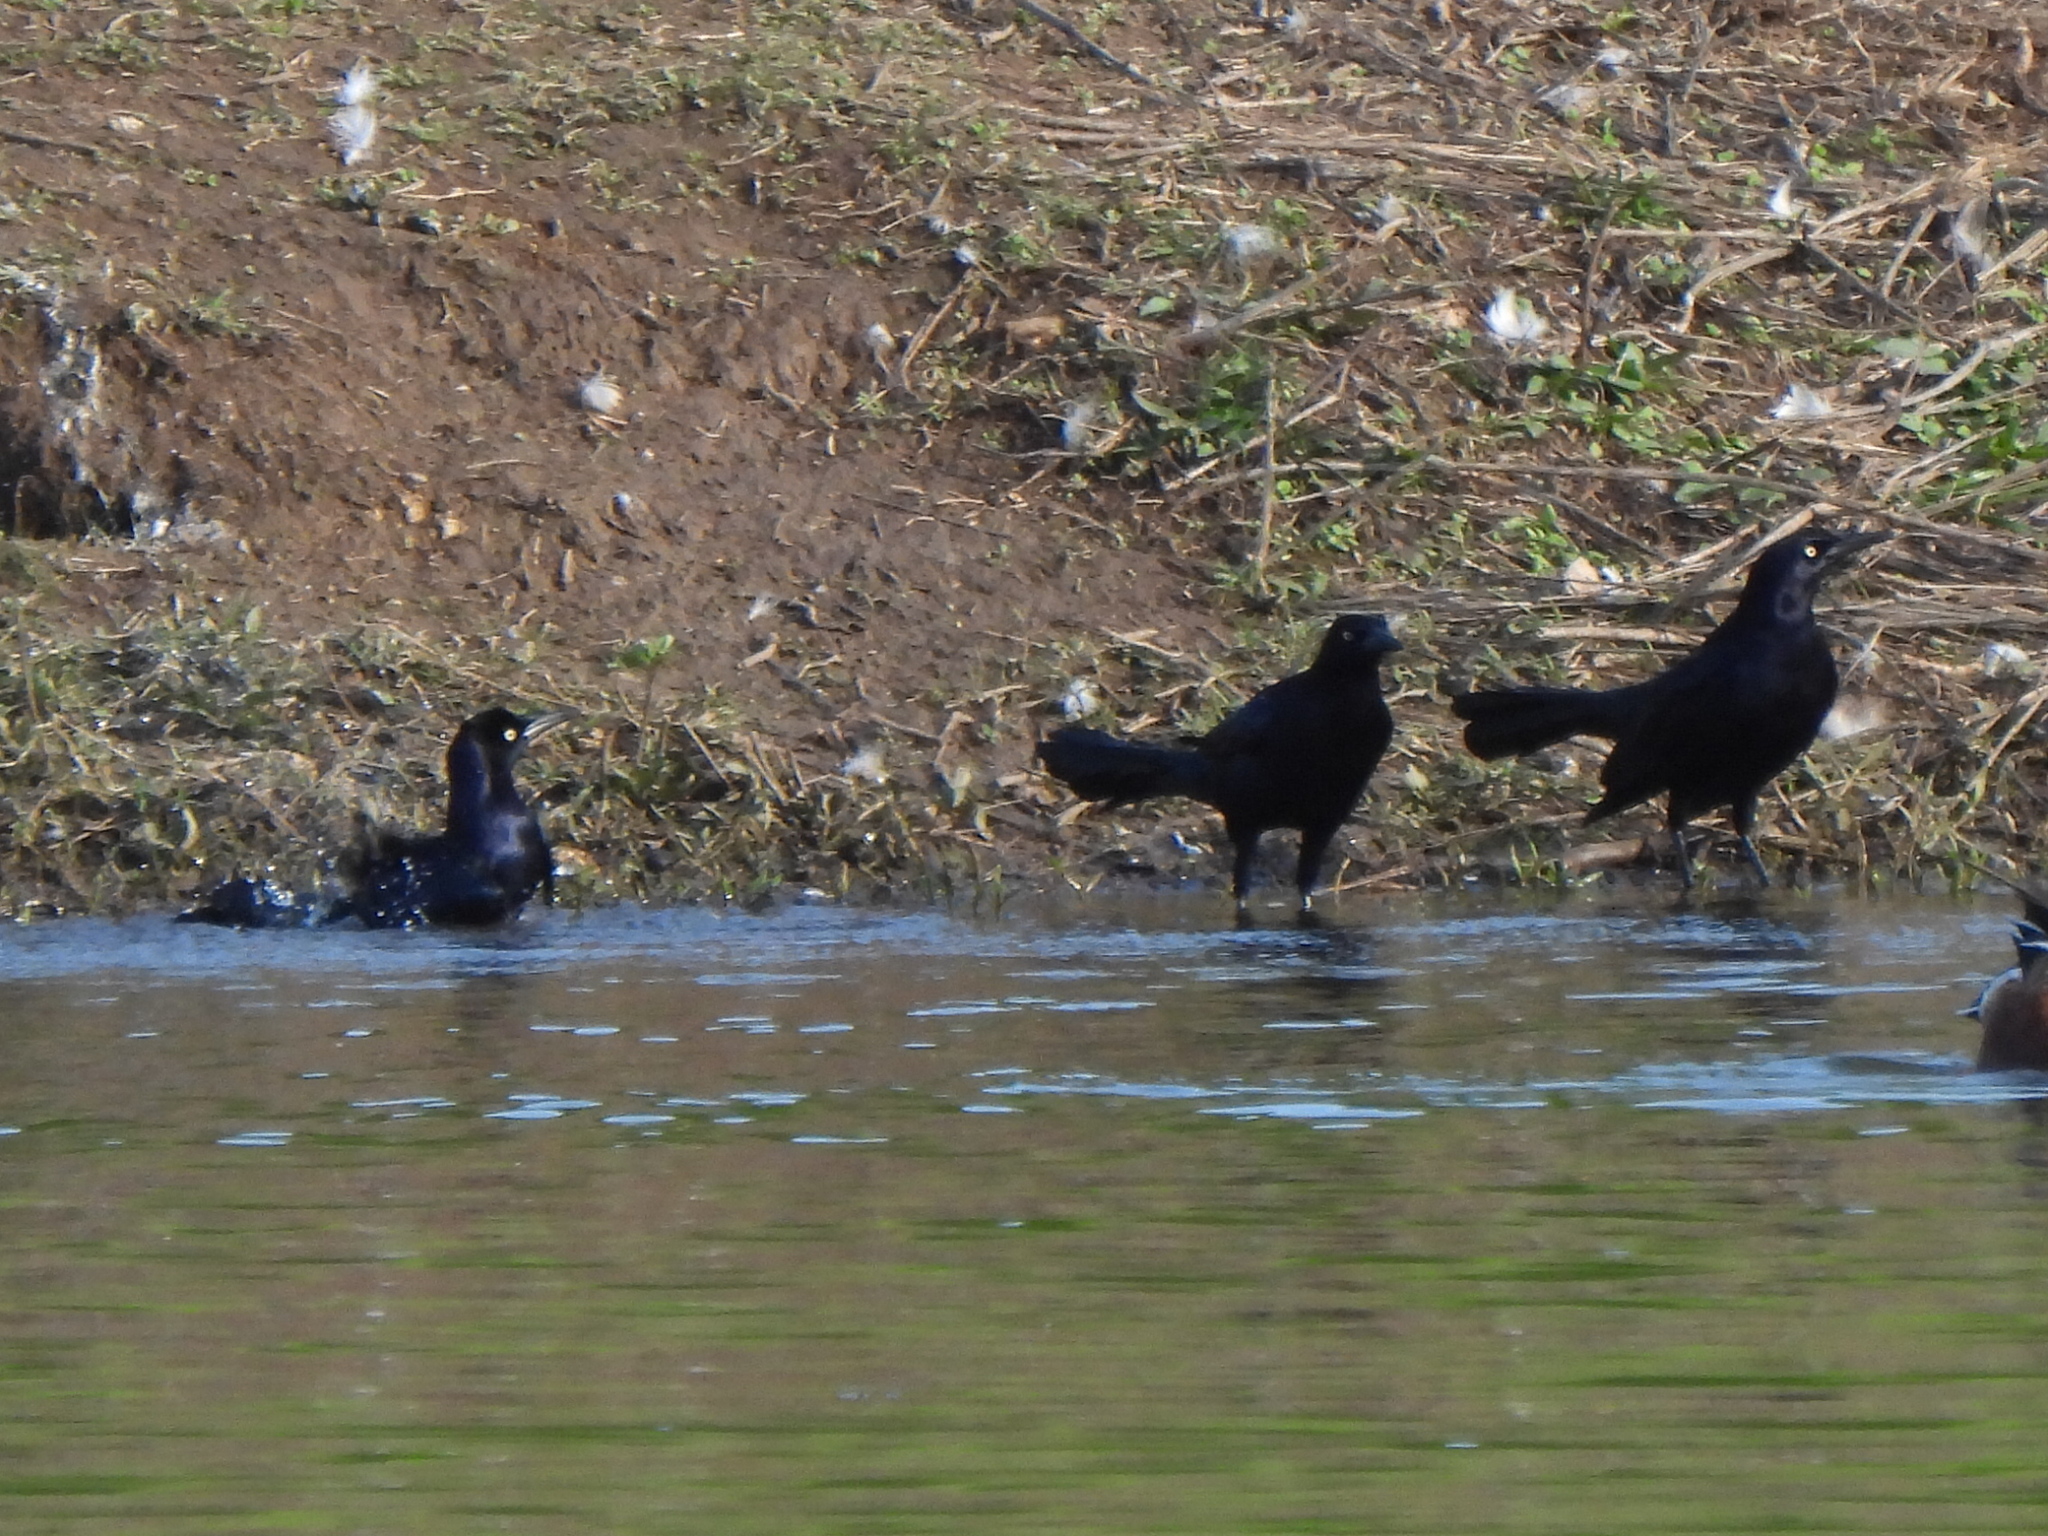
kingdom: Animalia
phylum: Chordata
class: Aves
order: Passeriformes
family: Icteridae
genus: Quiscalus
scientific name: Quiscalus mexicanus
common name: Great-tailed grackle
